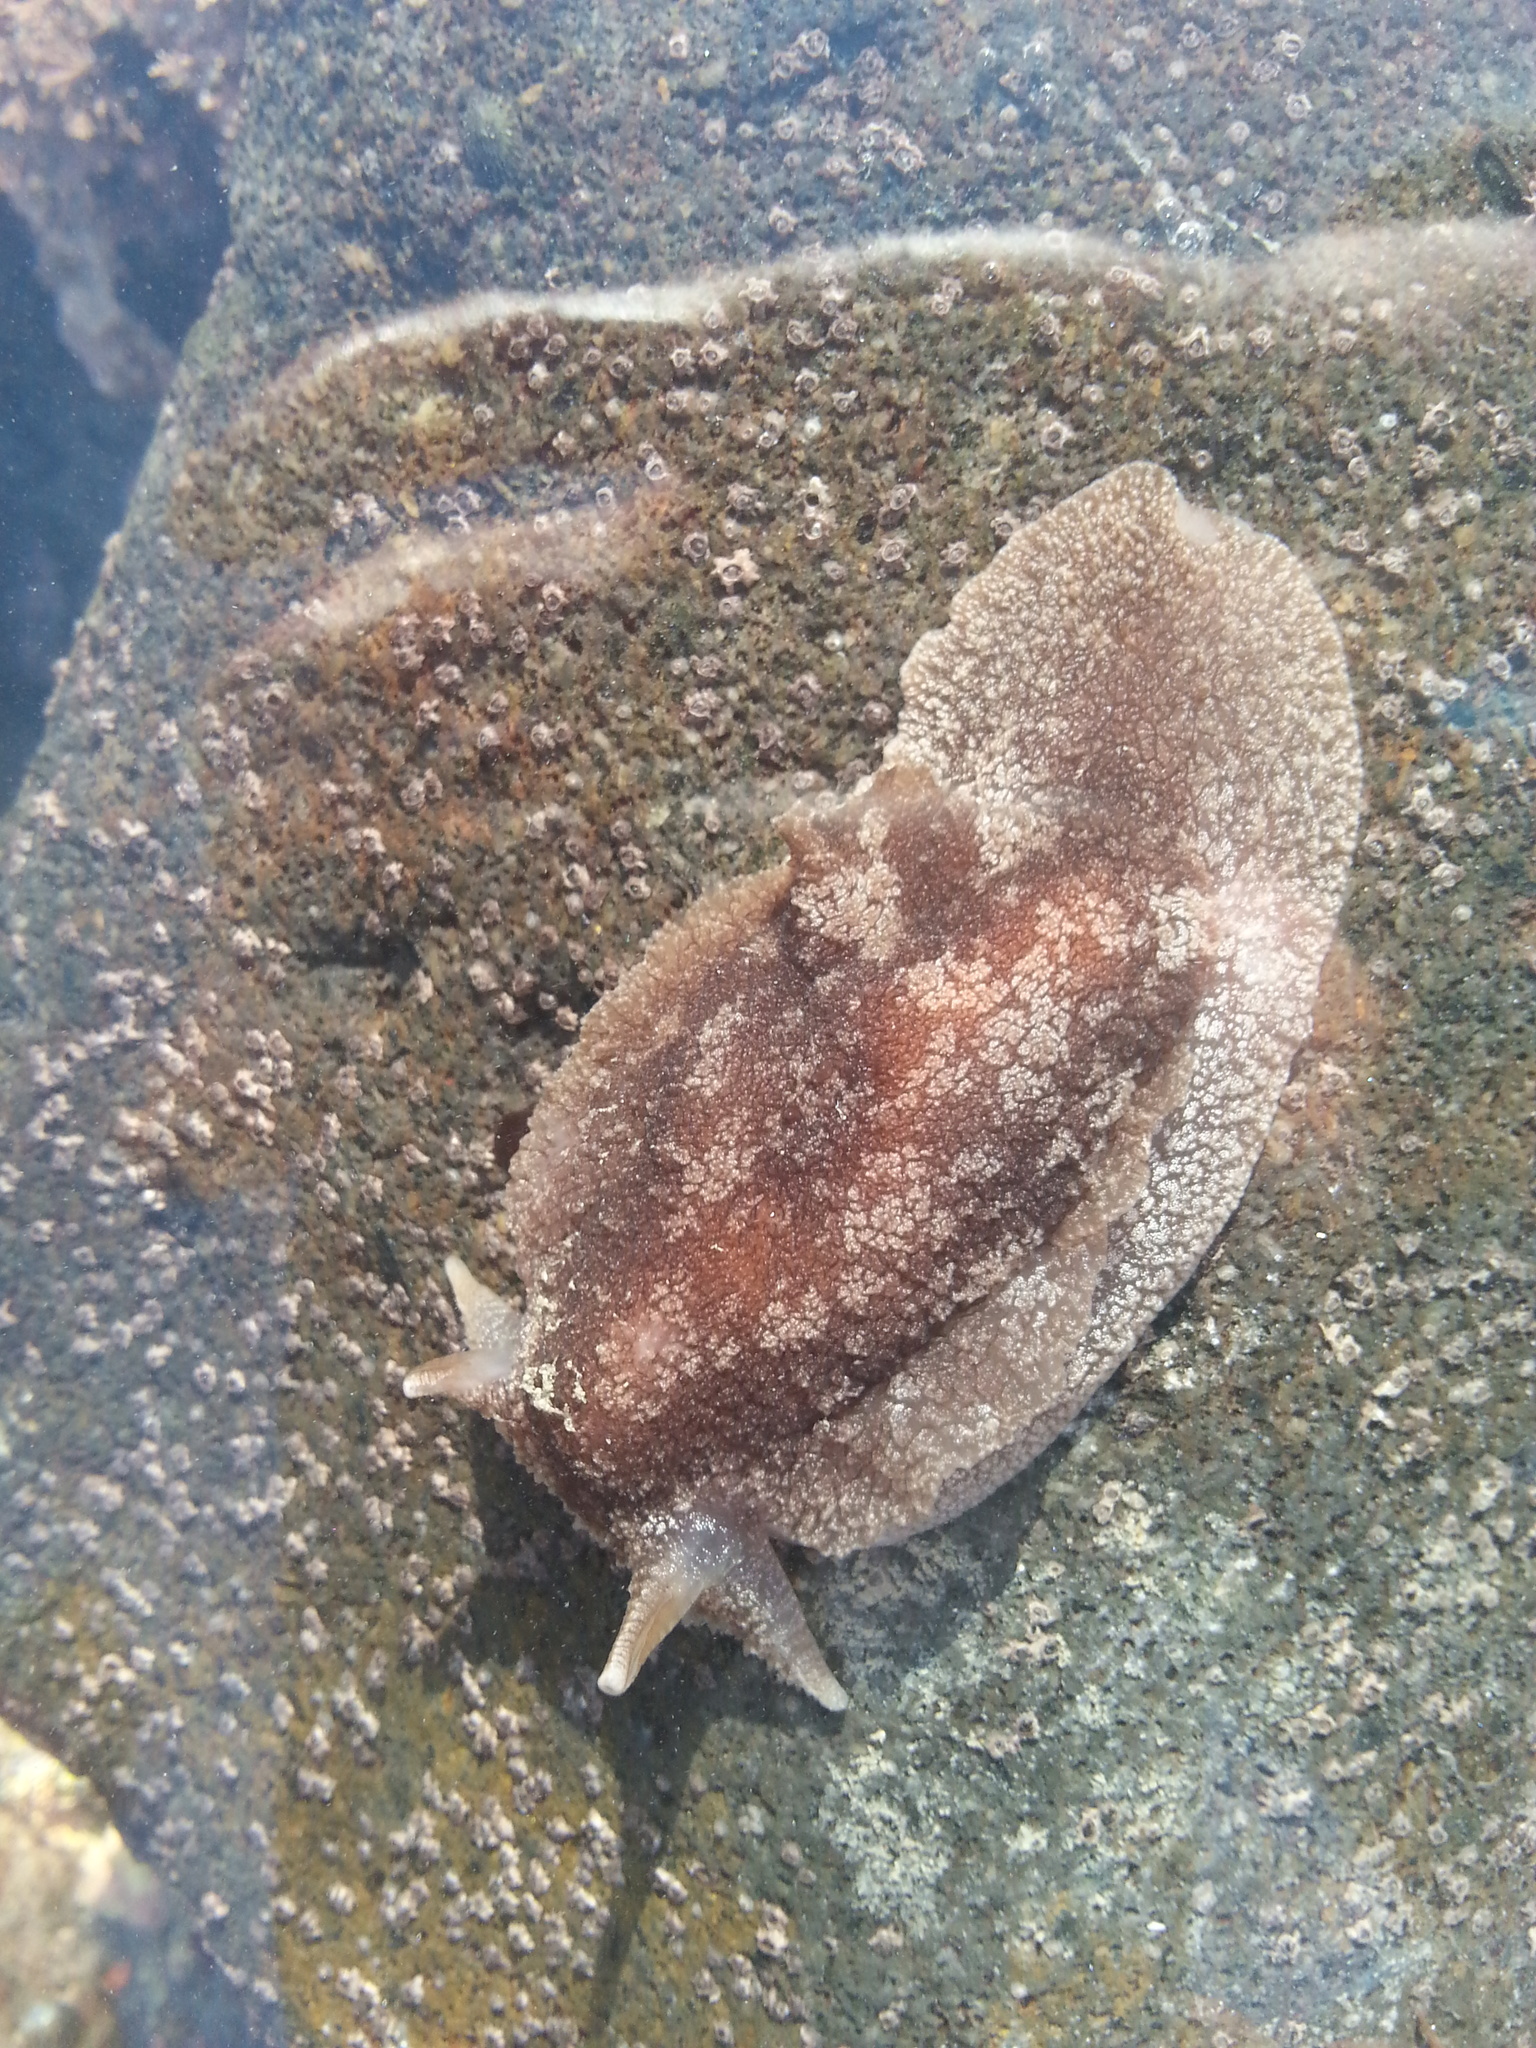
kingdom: Animalia
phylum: Mollusca
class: Gastropoda
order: Pleurobranchida
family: Pleurobranchaeidae
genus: Pleurobranchaea
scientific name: Pleurobranchaea maculata
